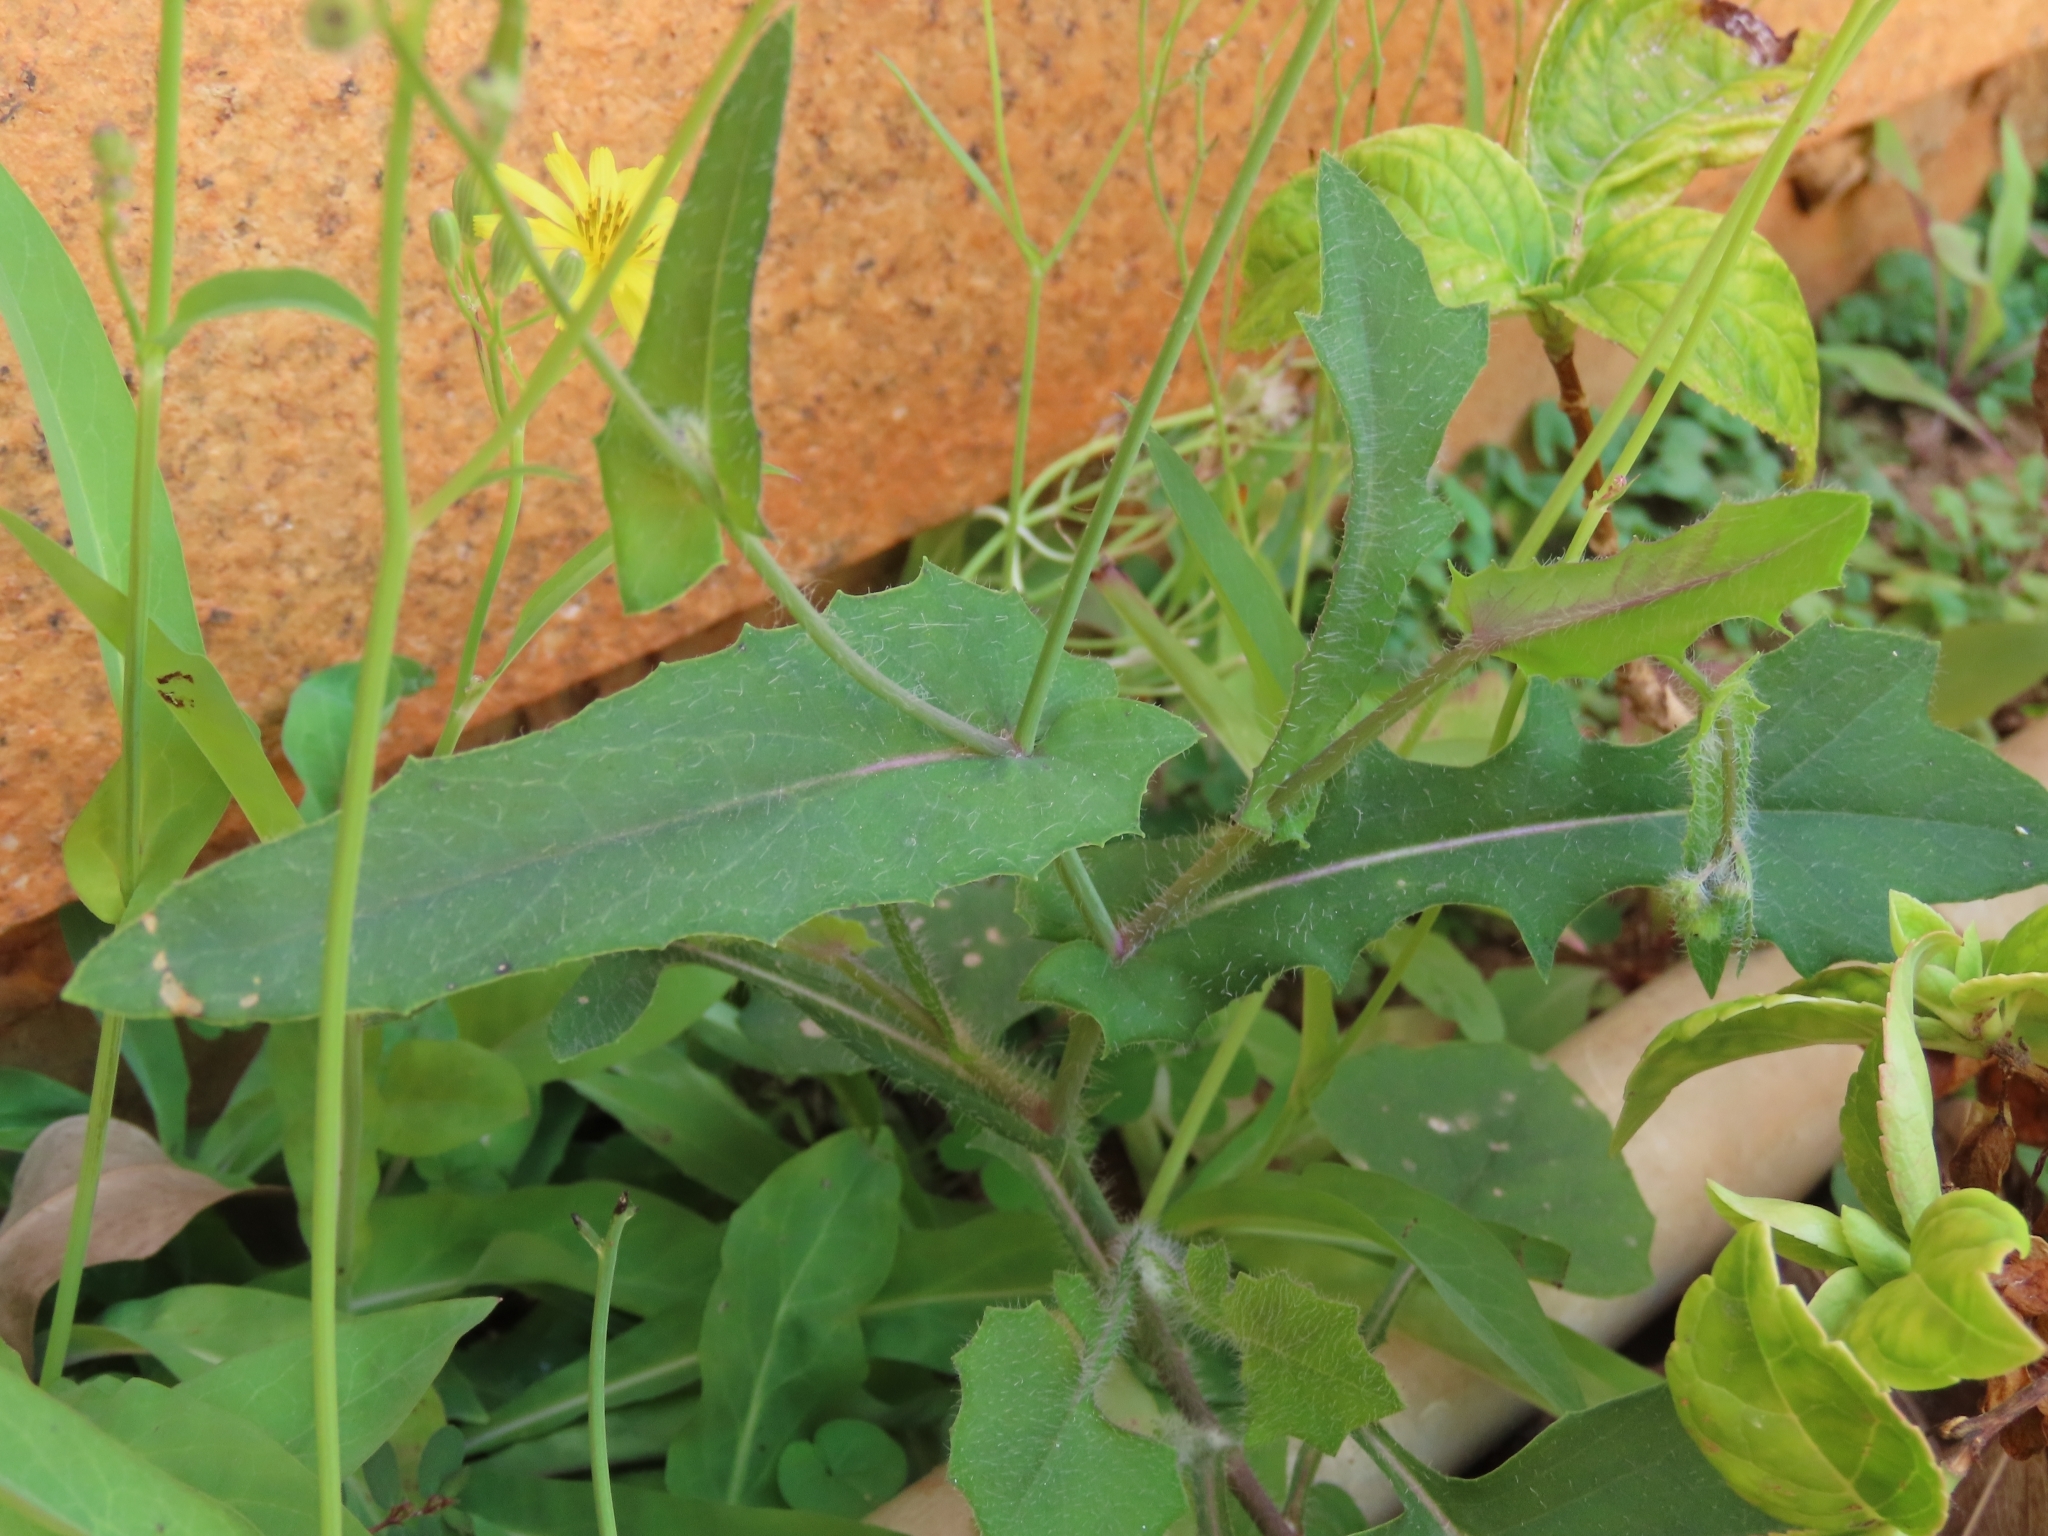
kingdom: Plantae
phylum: Tracheophyta
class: Magnoliopsida
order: Asterales
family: Asteraceae
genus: Emilia
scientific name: Emilia javanica
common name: Tassel-flower
